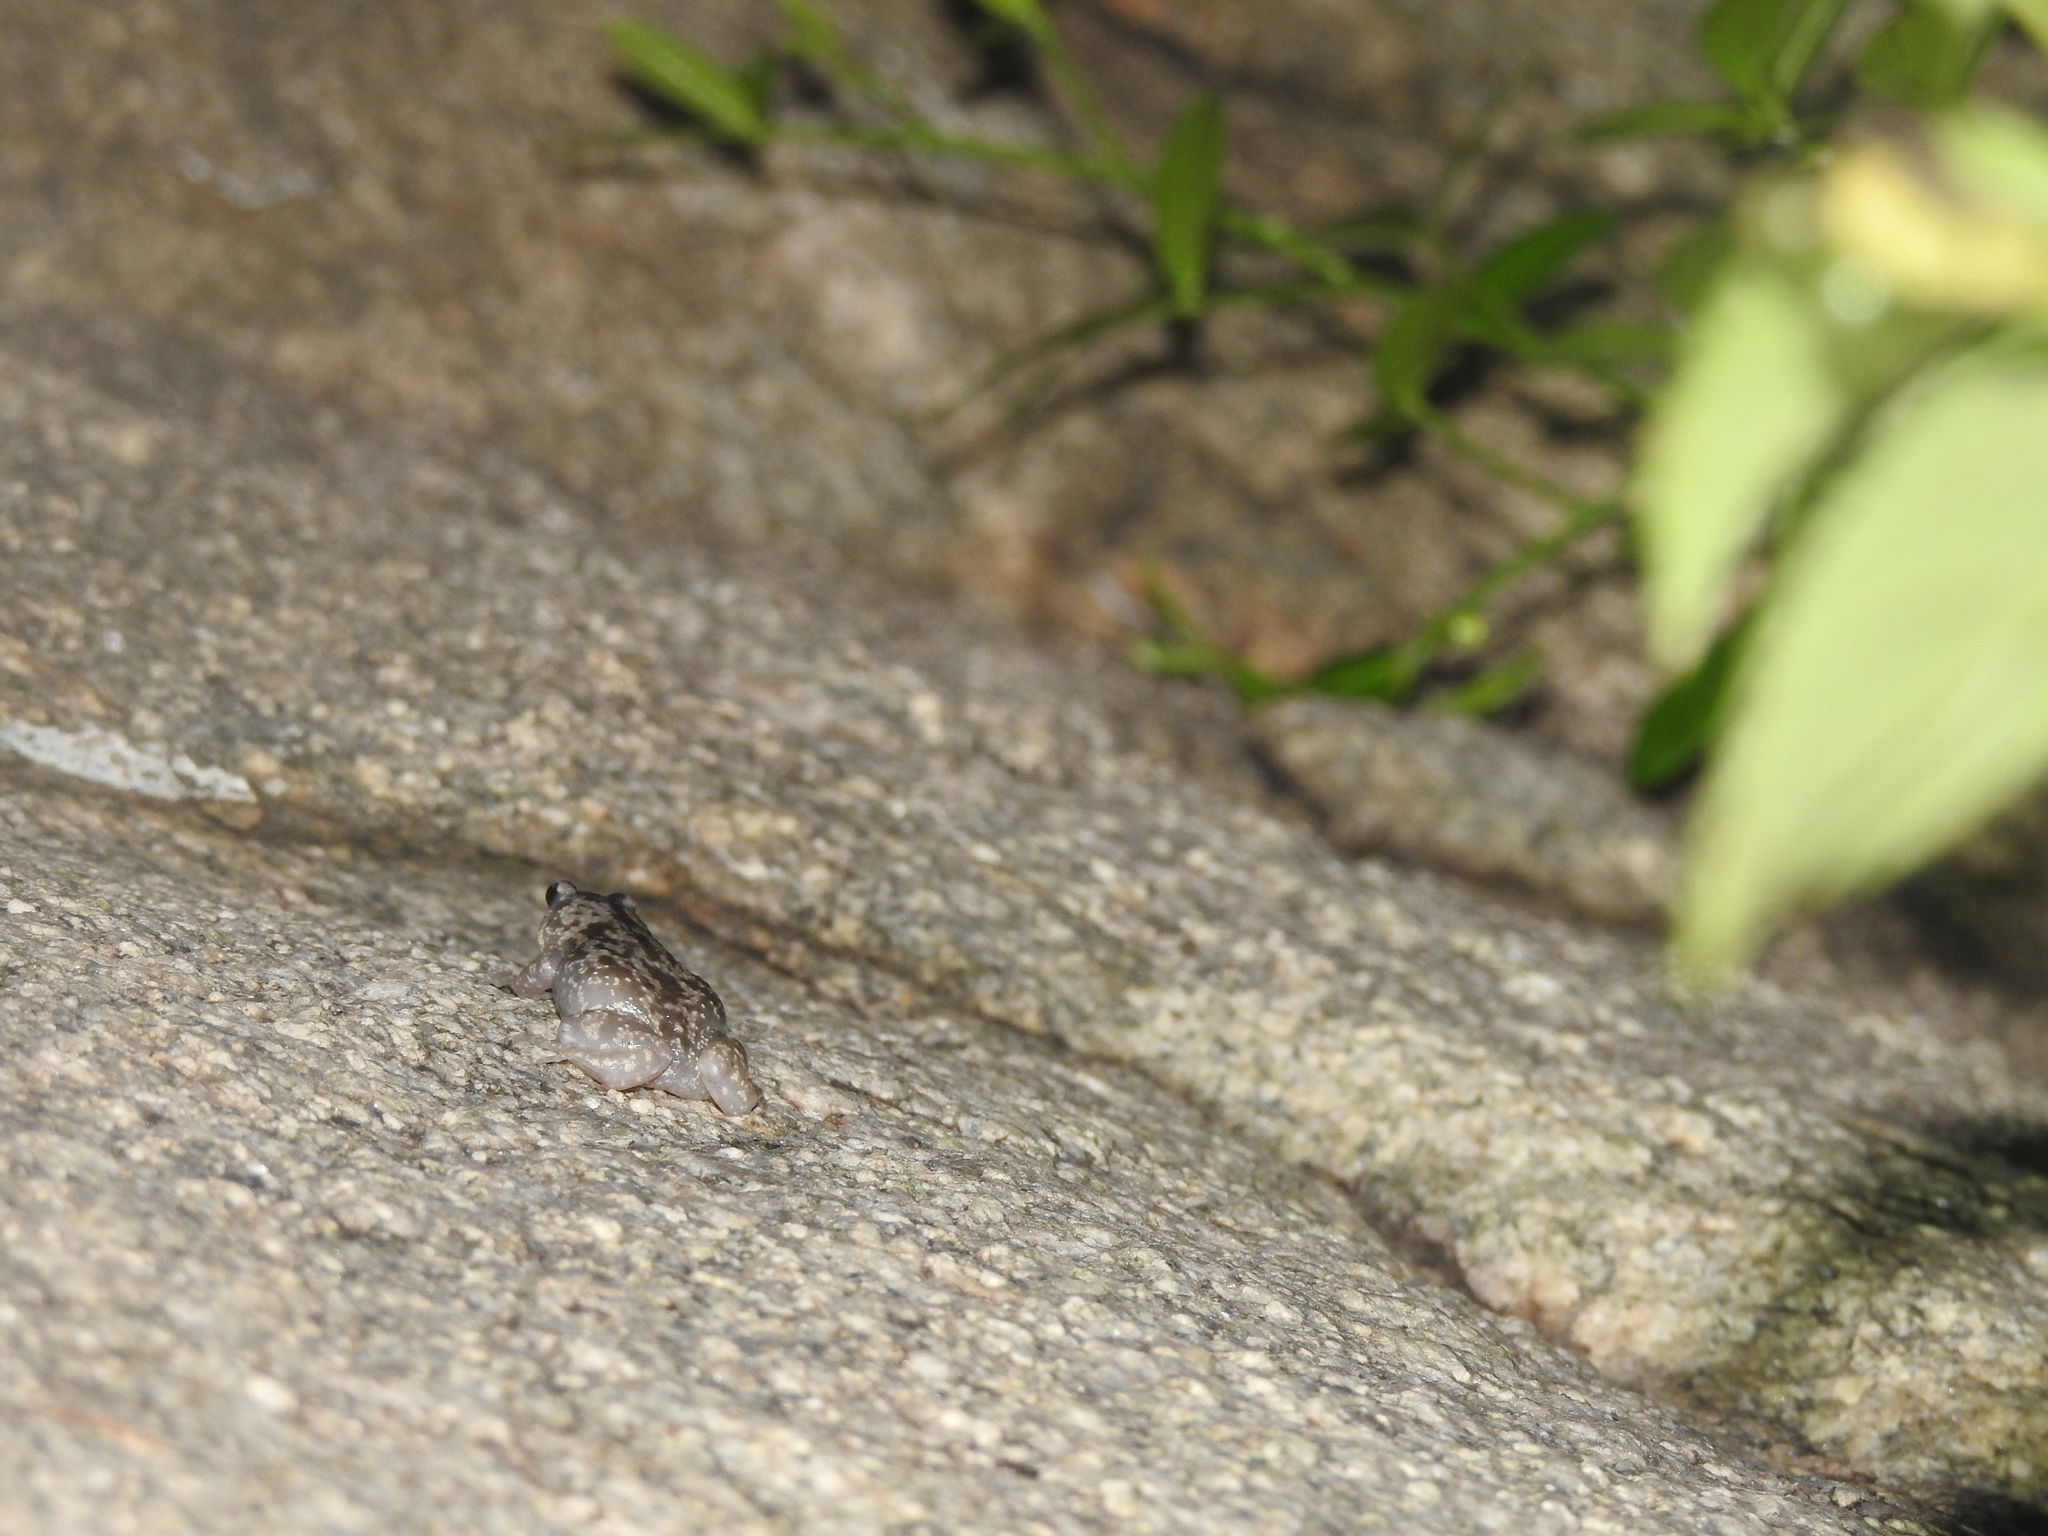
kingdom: Animalia
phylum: Chordata
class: Amphibia
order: Anura
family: Microhylidae
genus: Uperodon
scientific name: Uperodon variegatus
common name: Eluru dot frog
